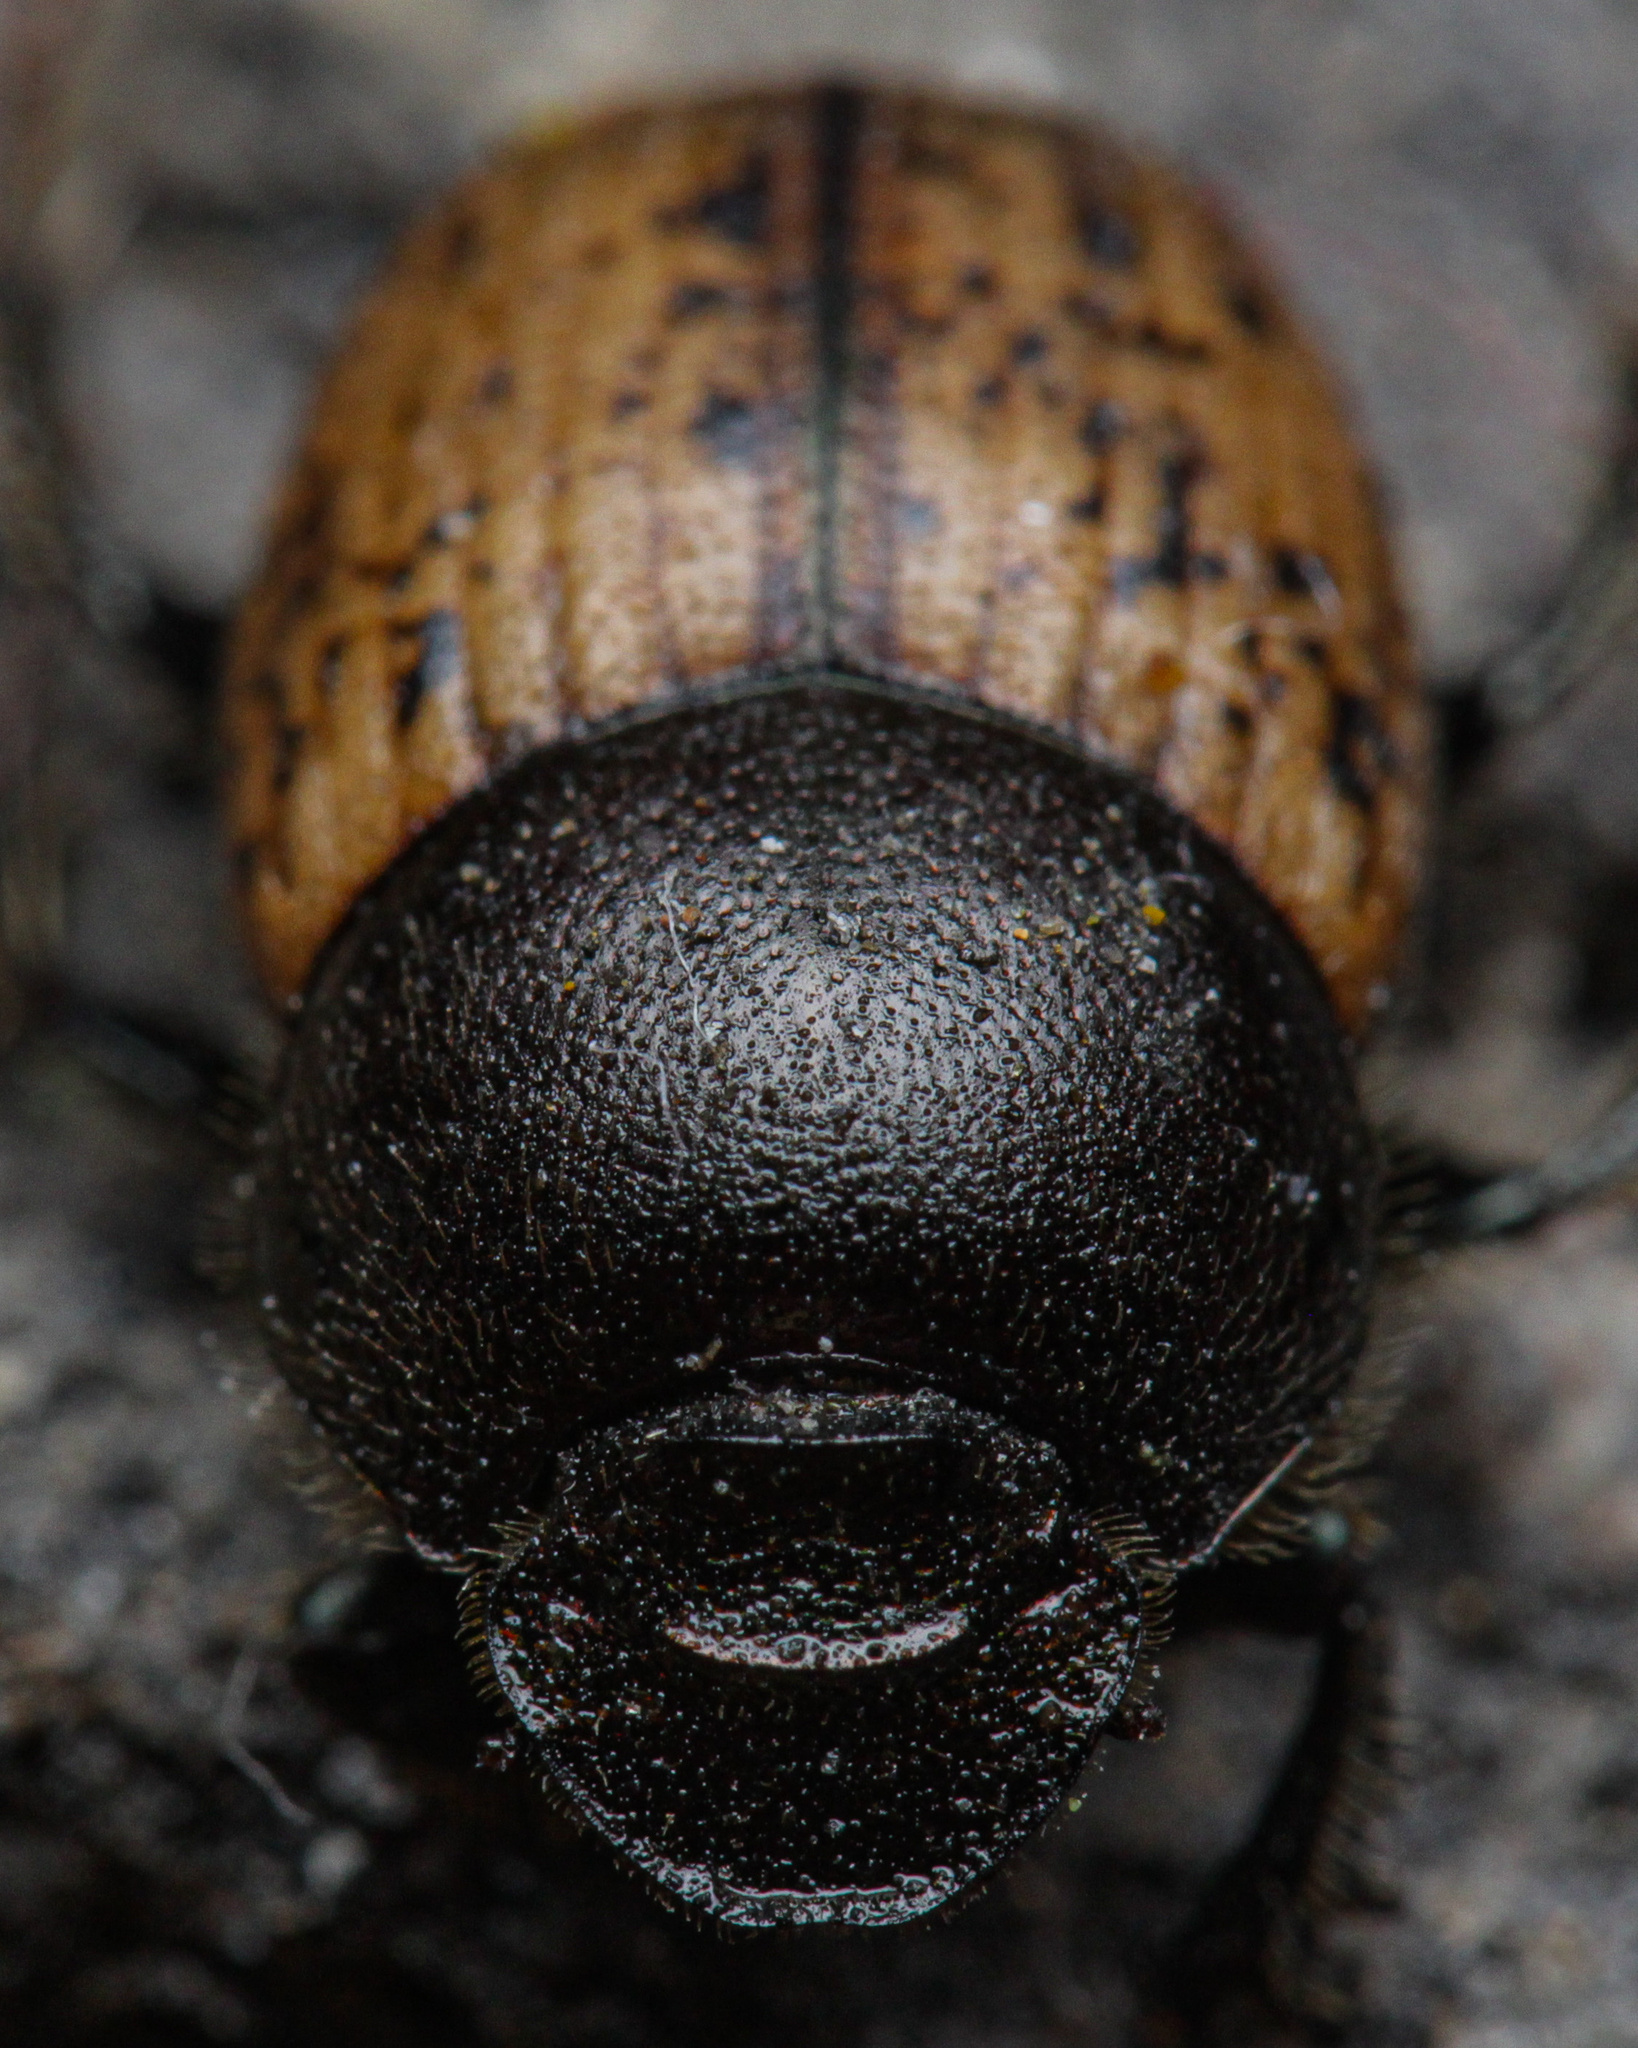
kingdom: Animalia
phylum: Arthropoda
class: Insecta
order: Coleoptera
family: Scarabaeidae
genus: Onthophagus
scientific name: Onthophagus fracticornis
